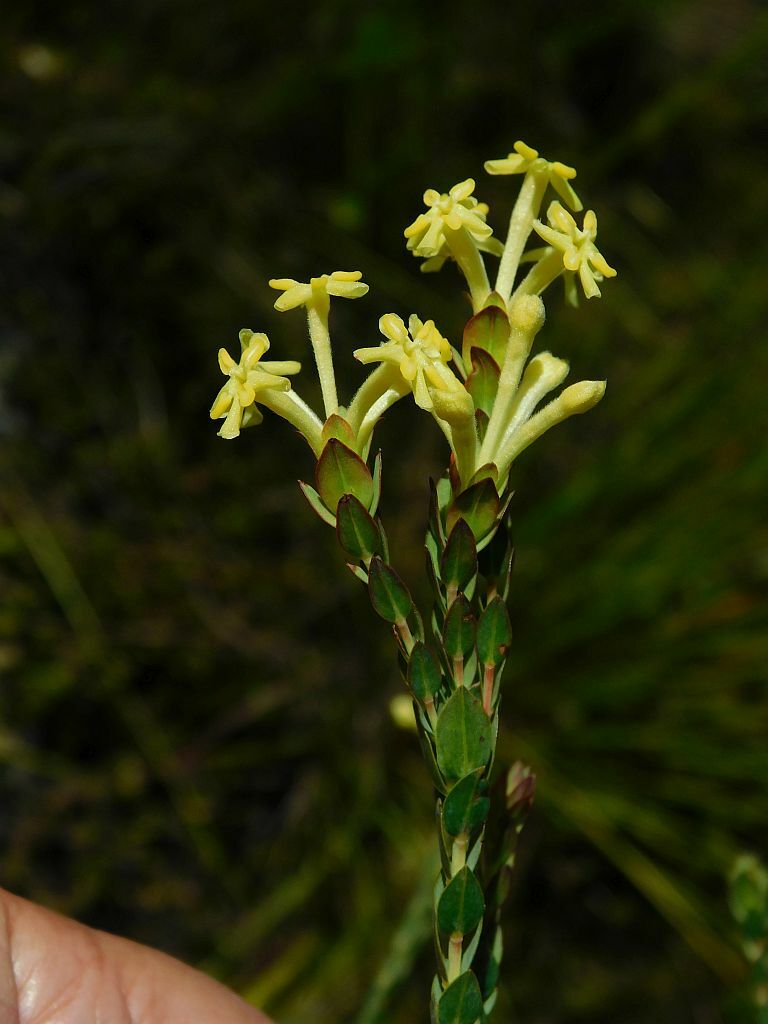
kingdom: Plantae
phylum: Tracheophyta
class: Magnoliopsida
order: Malvales
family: Thymelaeaceae
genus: Gnidia
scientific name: Gnidia oppositifolia
